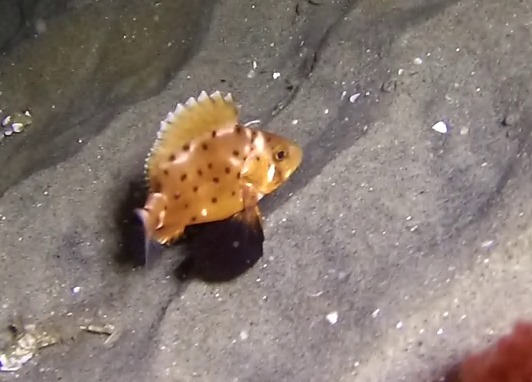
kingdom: Animalia
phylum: Chordata
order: Perciformes
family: Polyprionidae
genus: Stereolepis
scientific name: Stereolepis gigas
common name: Giant sea bass
